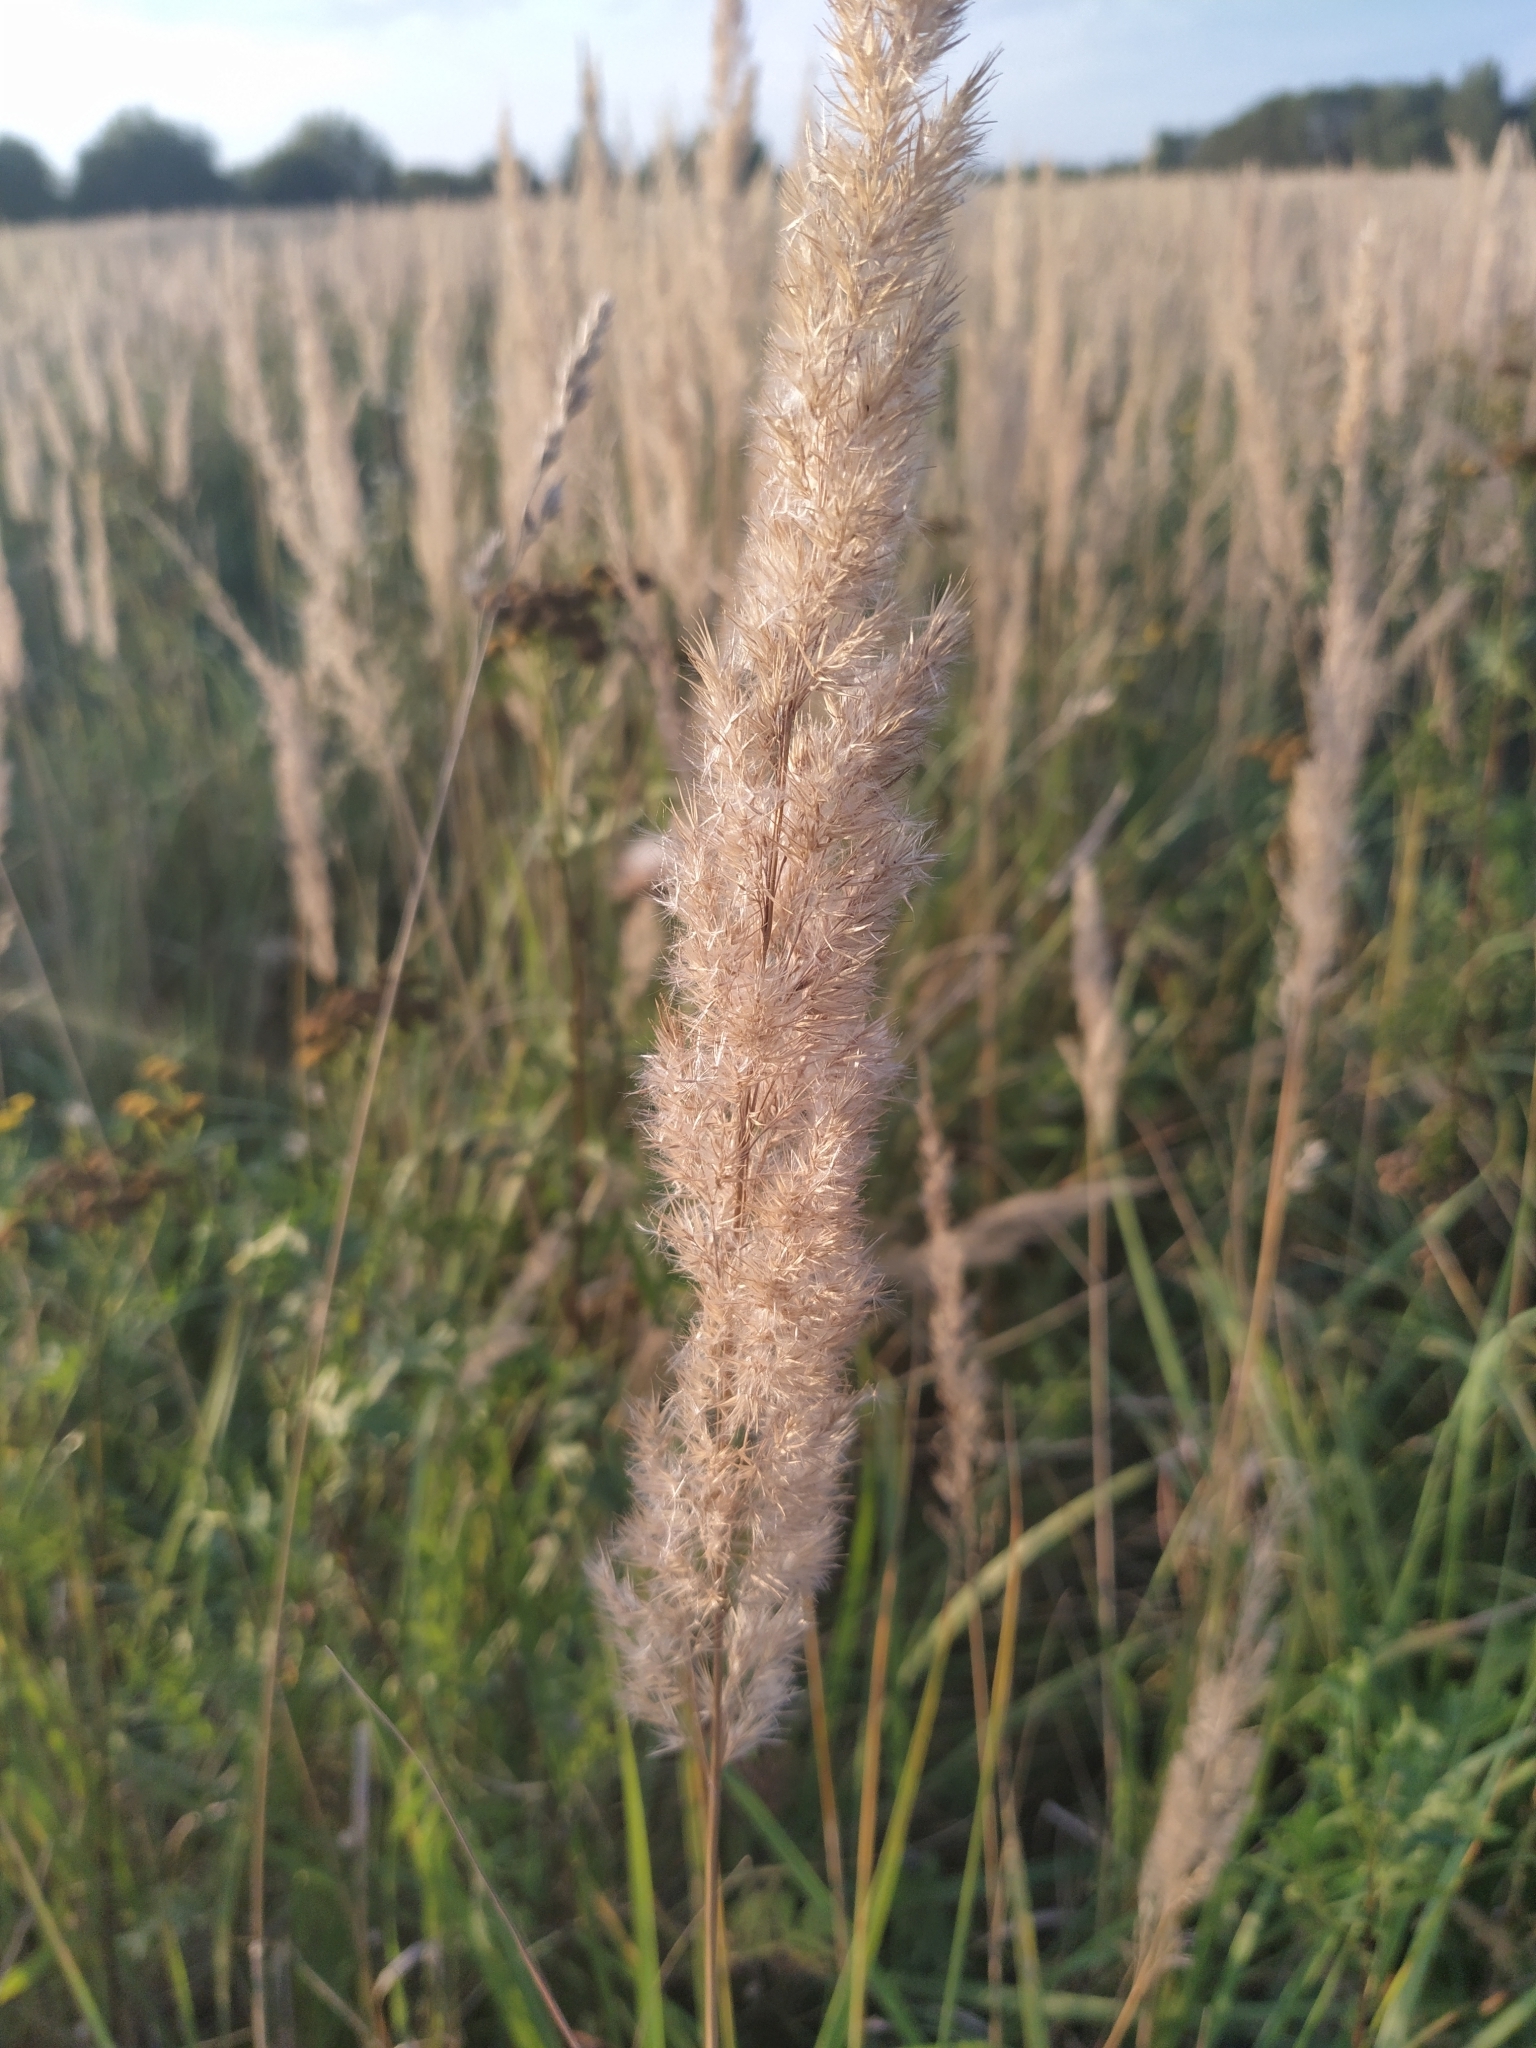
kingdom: Plantae
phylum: Tracheophyta
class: Liliopsida
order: Poales
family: Poaceae
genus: Calamagrostis
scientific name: Calamagrostis epigejos
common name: Wood small-reed
